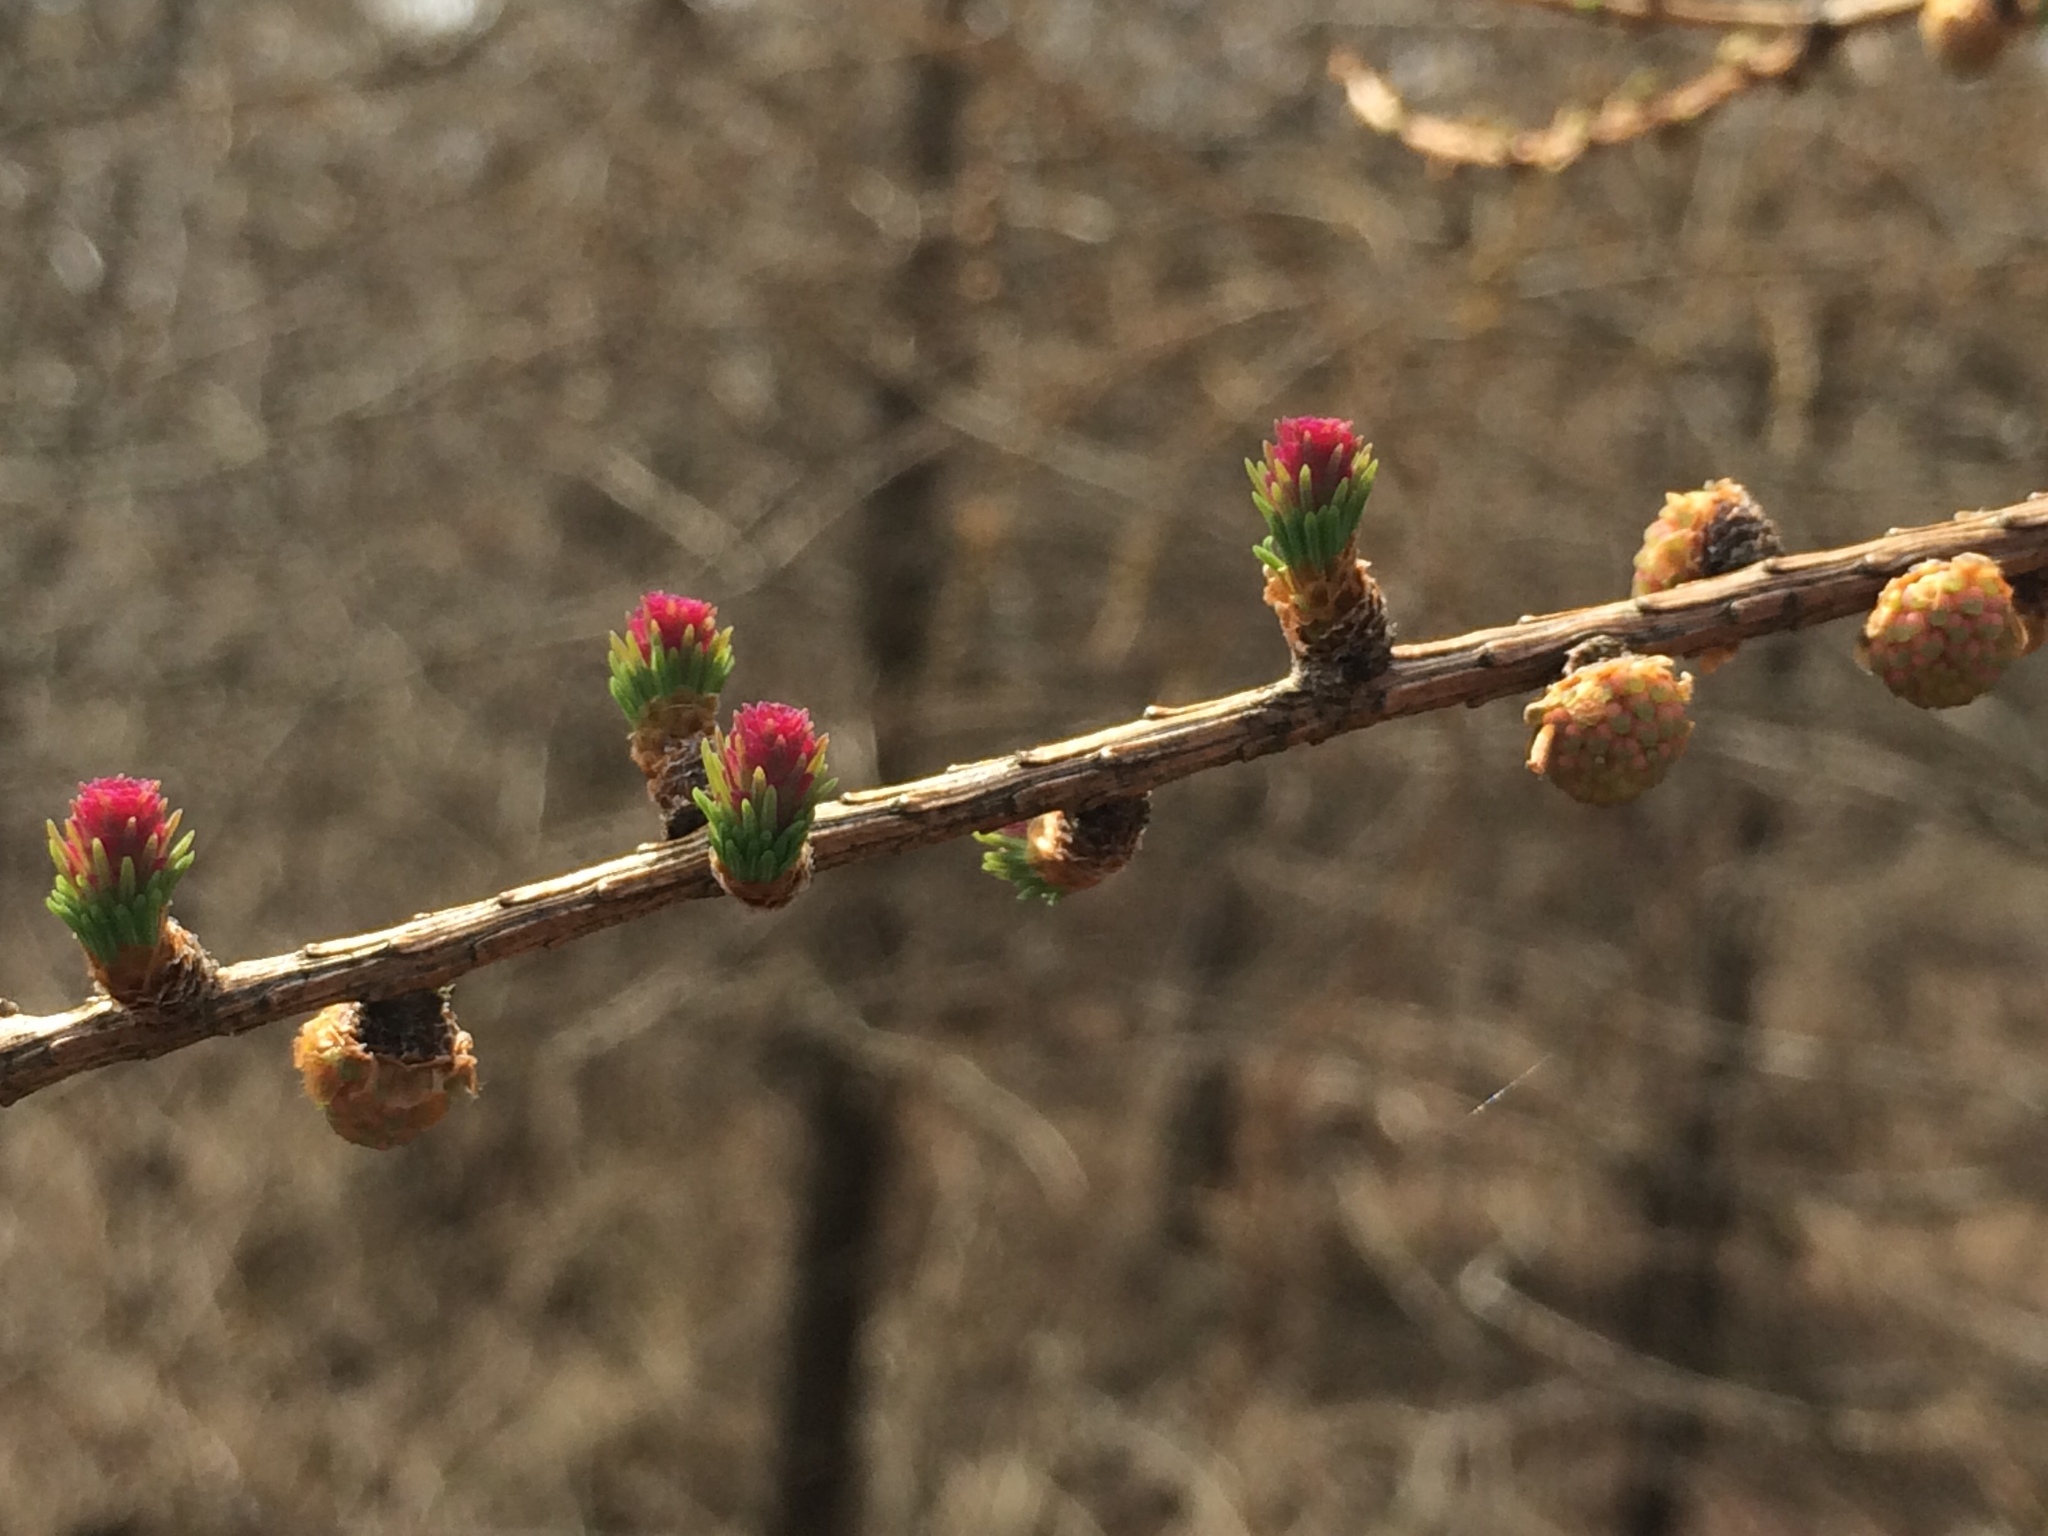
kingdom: Plantae
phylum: Tracheophyta
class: Pinopsida
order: Pinales
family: Pinaceae
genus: Larix
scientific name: Larix laricina
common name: American larch
